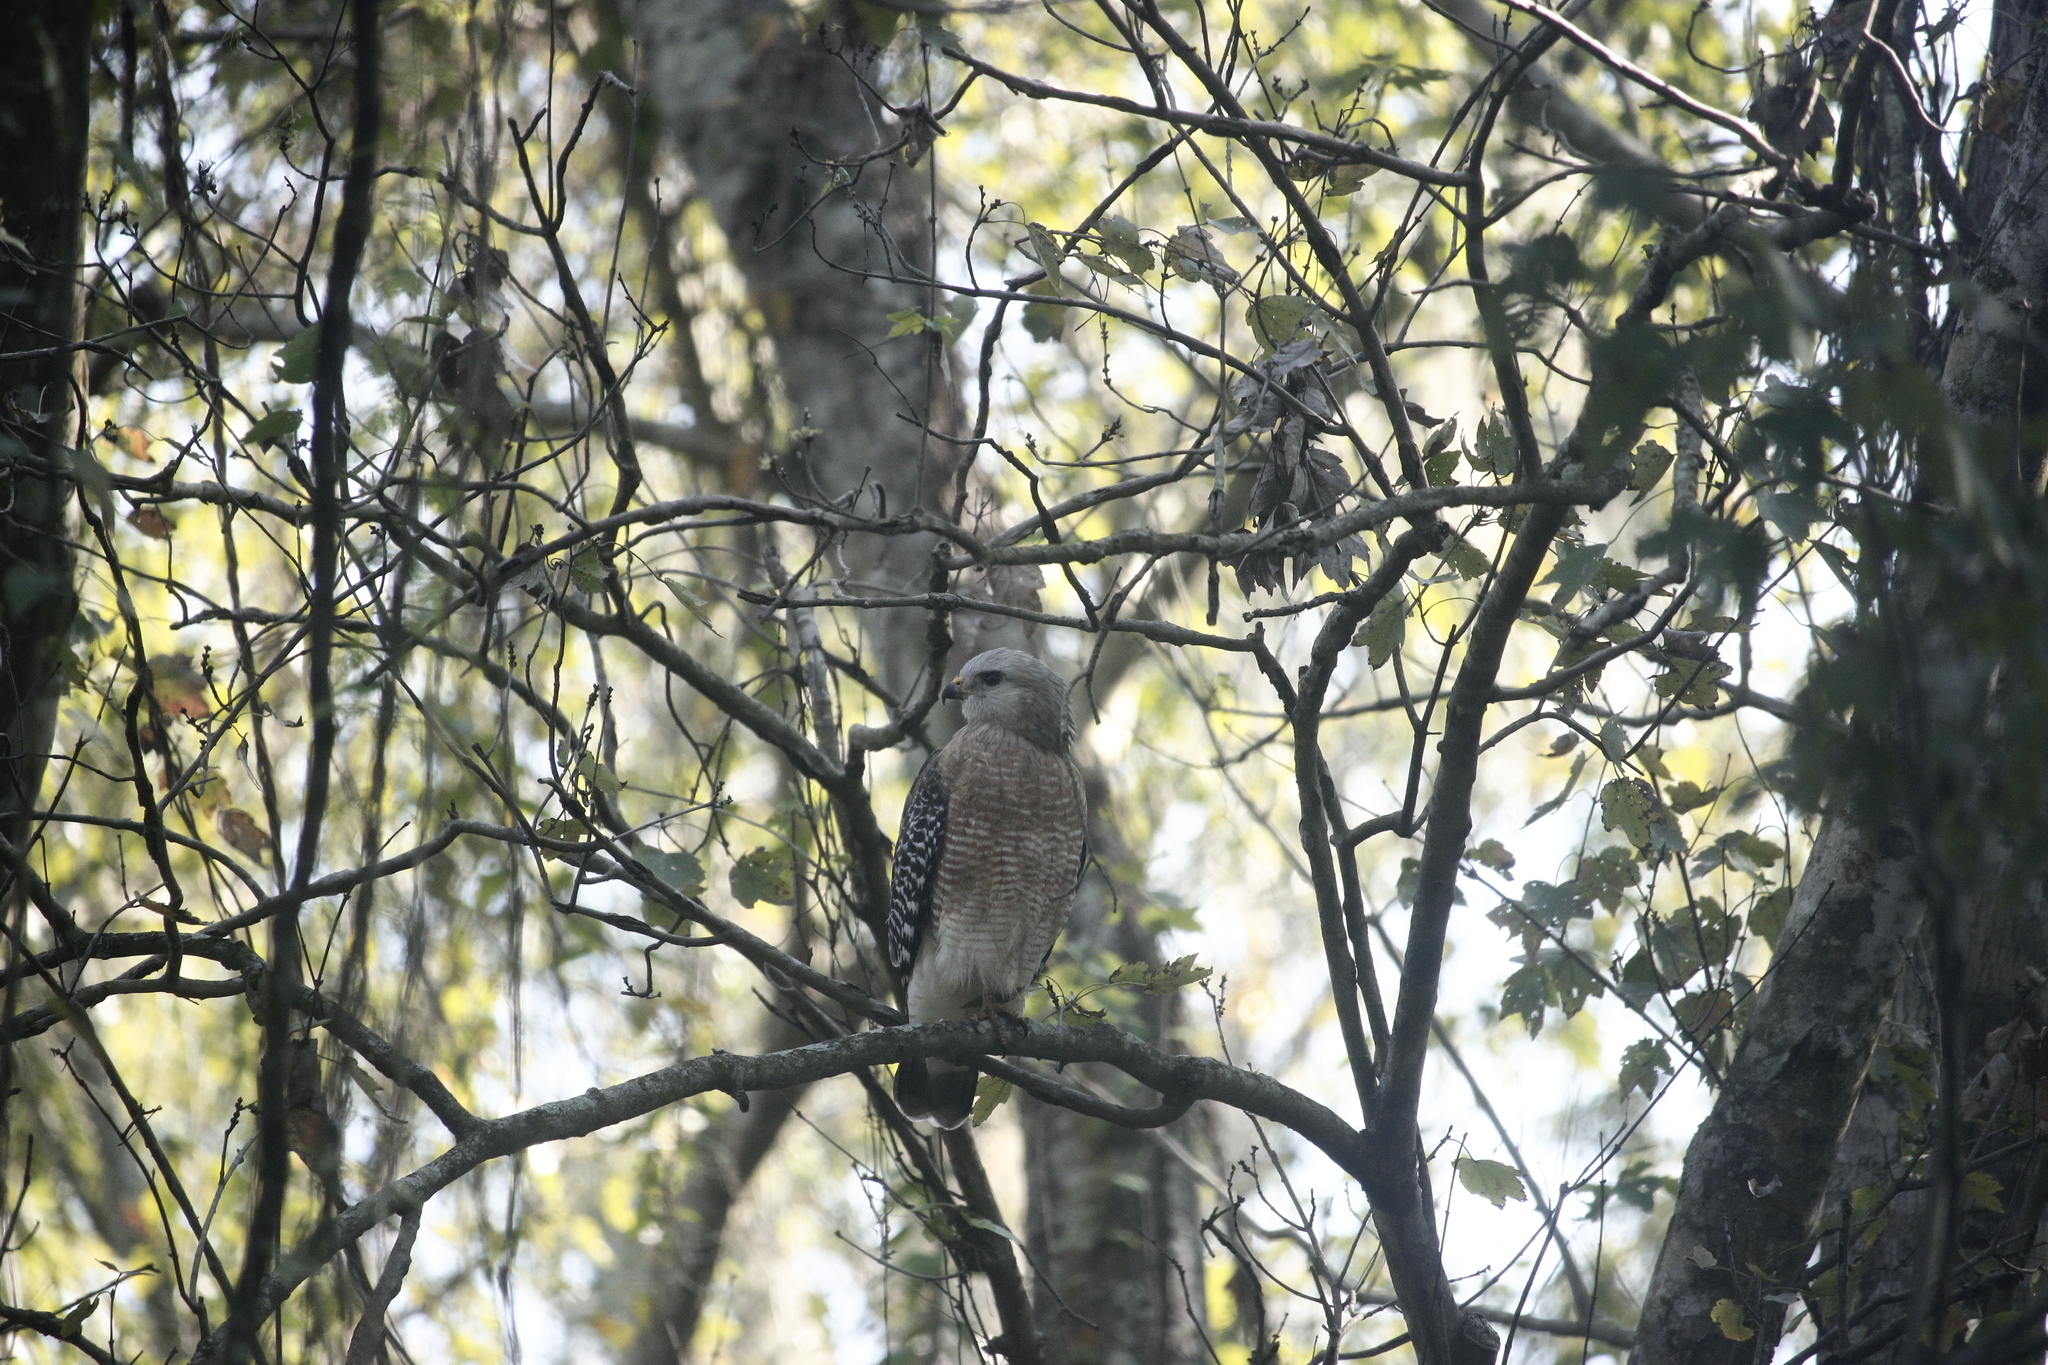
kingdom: Animalia
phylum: Chordata
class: Aves
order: Accipitriformes
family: Accipitridae
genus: Buteo
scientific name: Buteo lineatus
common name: Red-shouldered hawk
